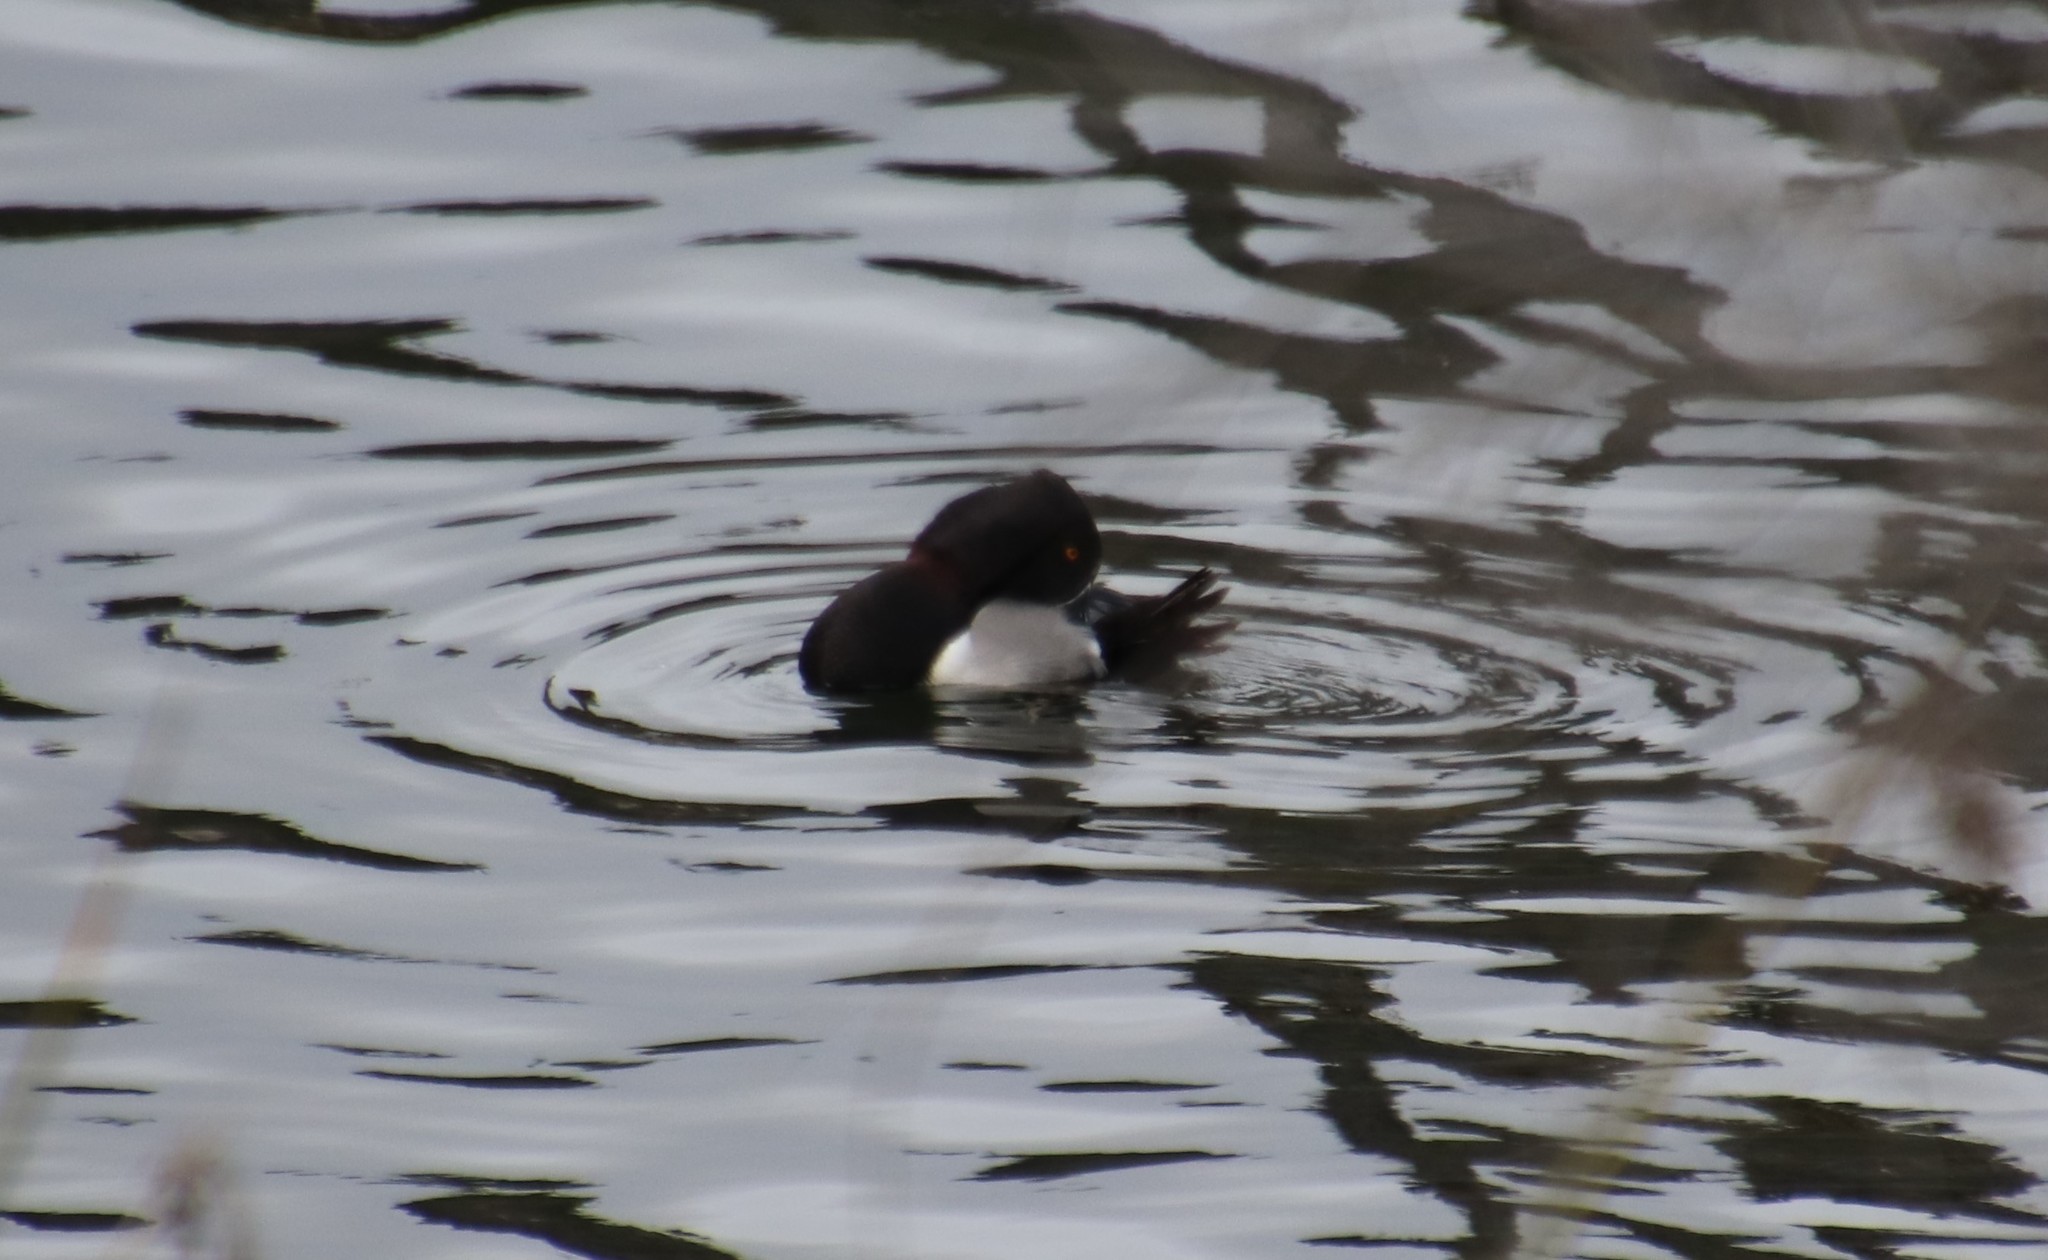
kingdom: Animalia
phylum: Chordata
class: Aves
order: Anseriformes
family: Anatidae
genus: Aythya
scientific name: Aythya collaris
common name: Ring-necked duck
